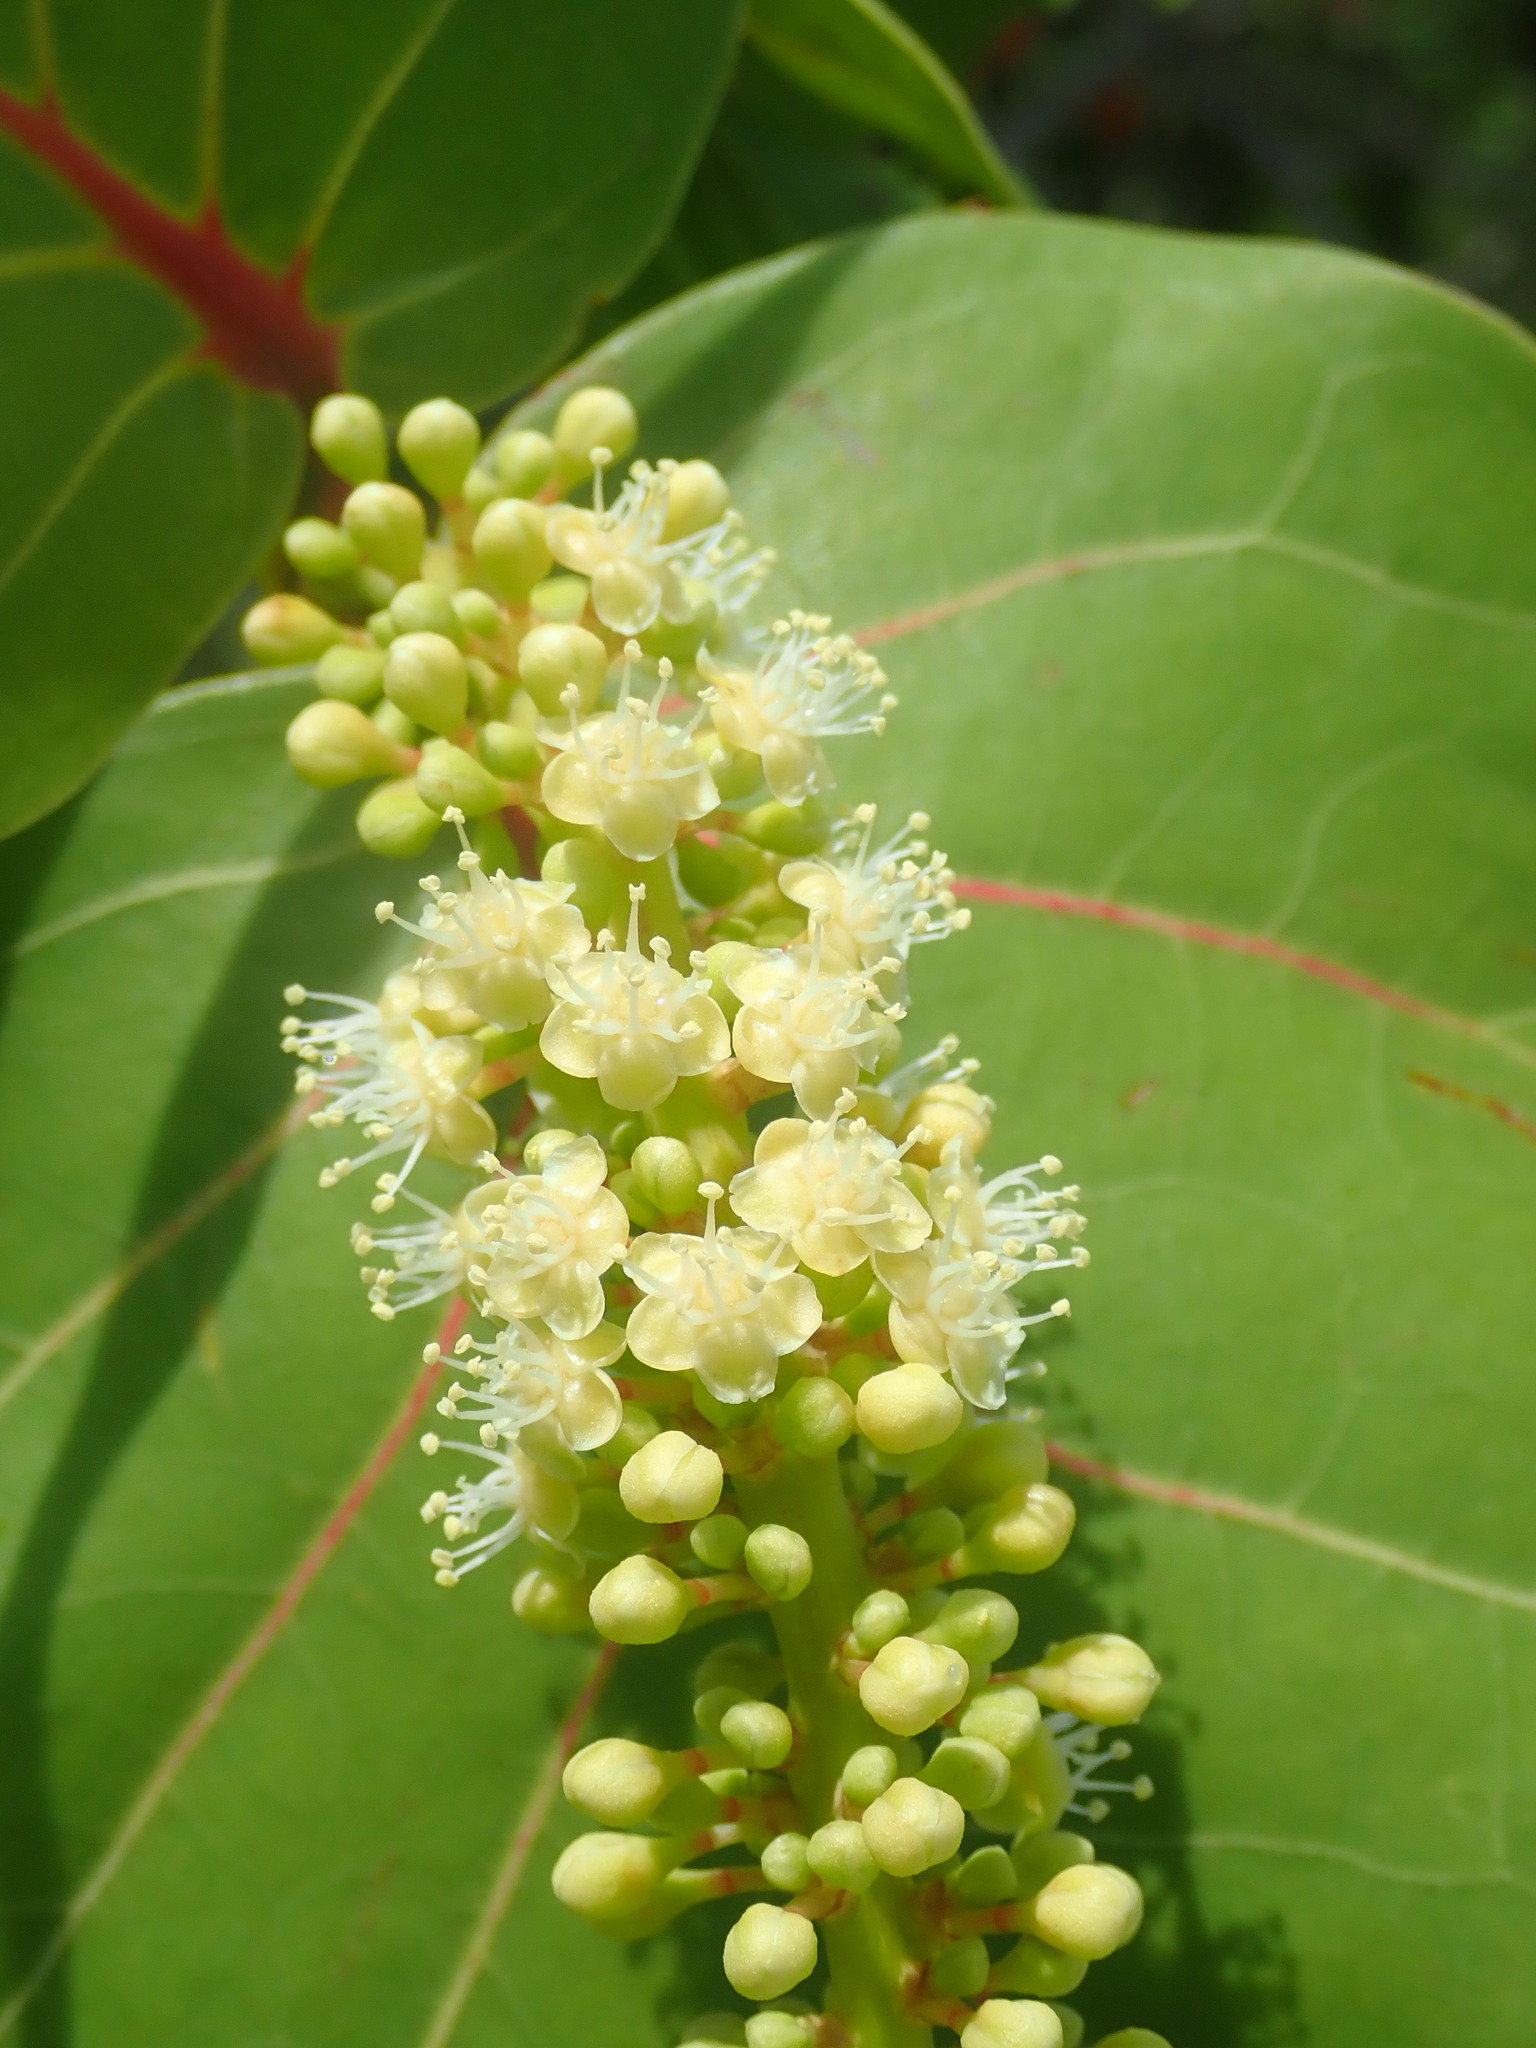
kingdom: Plantae
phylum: Tracheophyta
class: Magnoliopsida
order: Caryophyllales
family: Polygonaceae
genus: Coccoloba
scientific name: Coccoloba uvifera
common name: Seagrape
